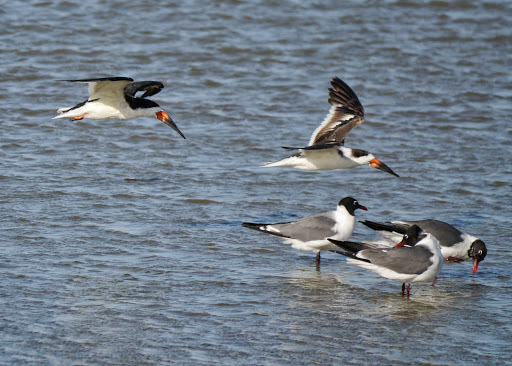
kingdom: Animalia
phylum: Chordata
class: Aves
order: Charadriiformes
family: Laridae
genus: Rynchops
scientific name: Rynchops niger
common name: Black skimmer
